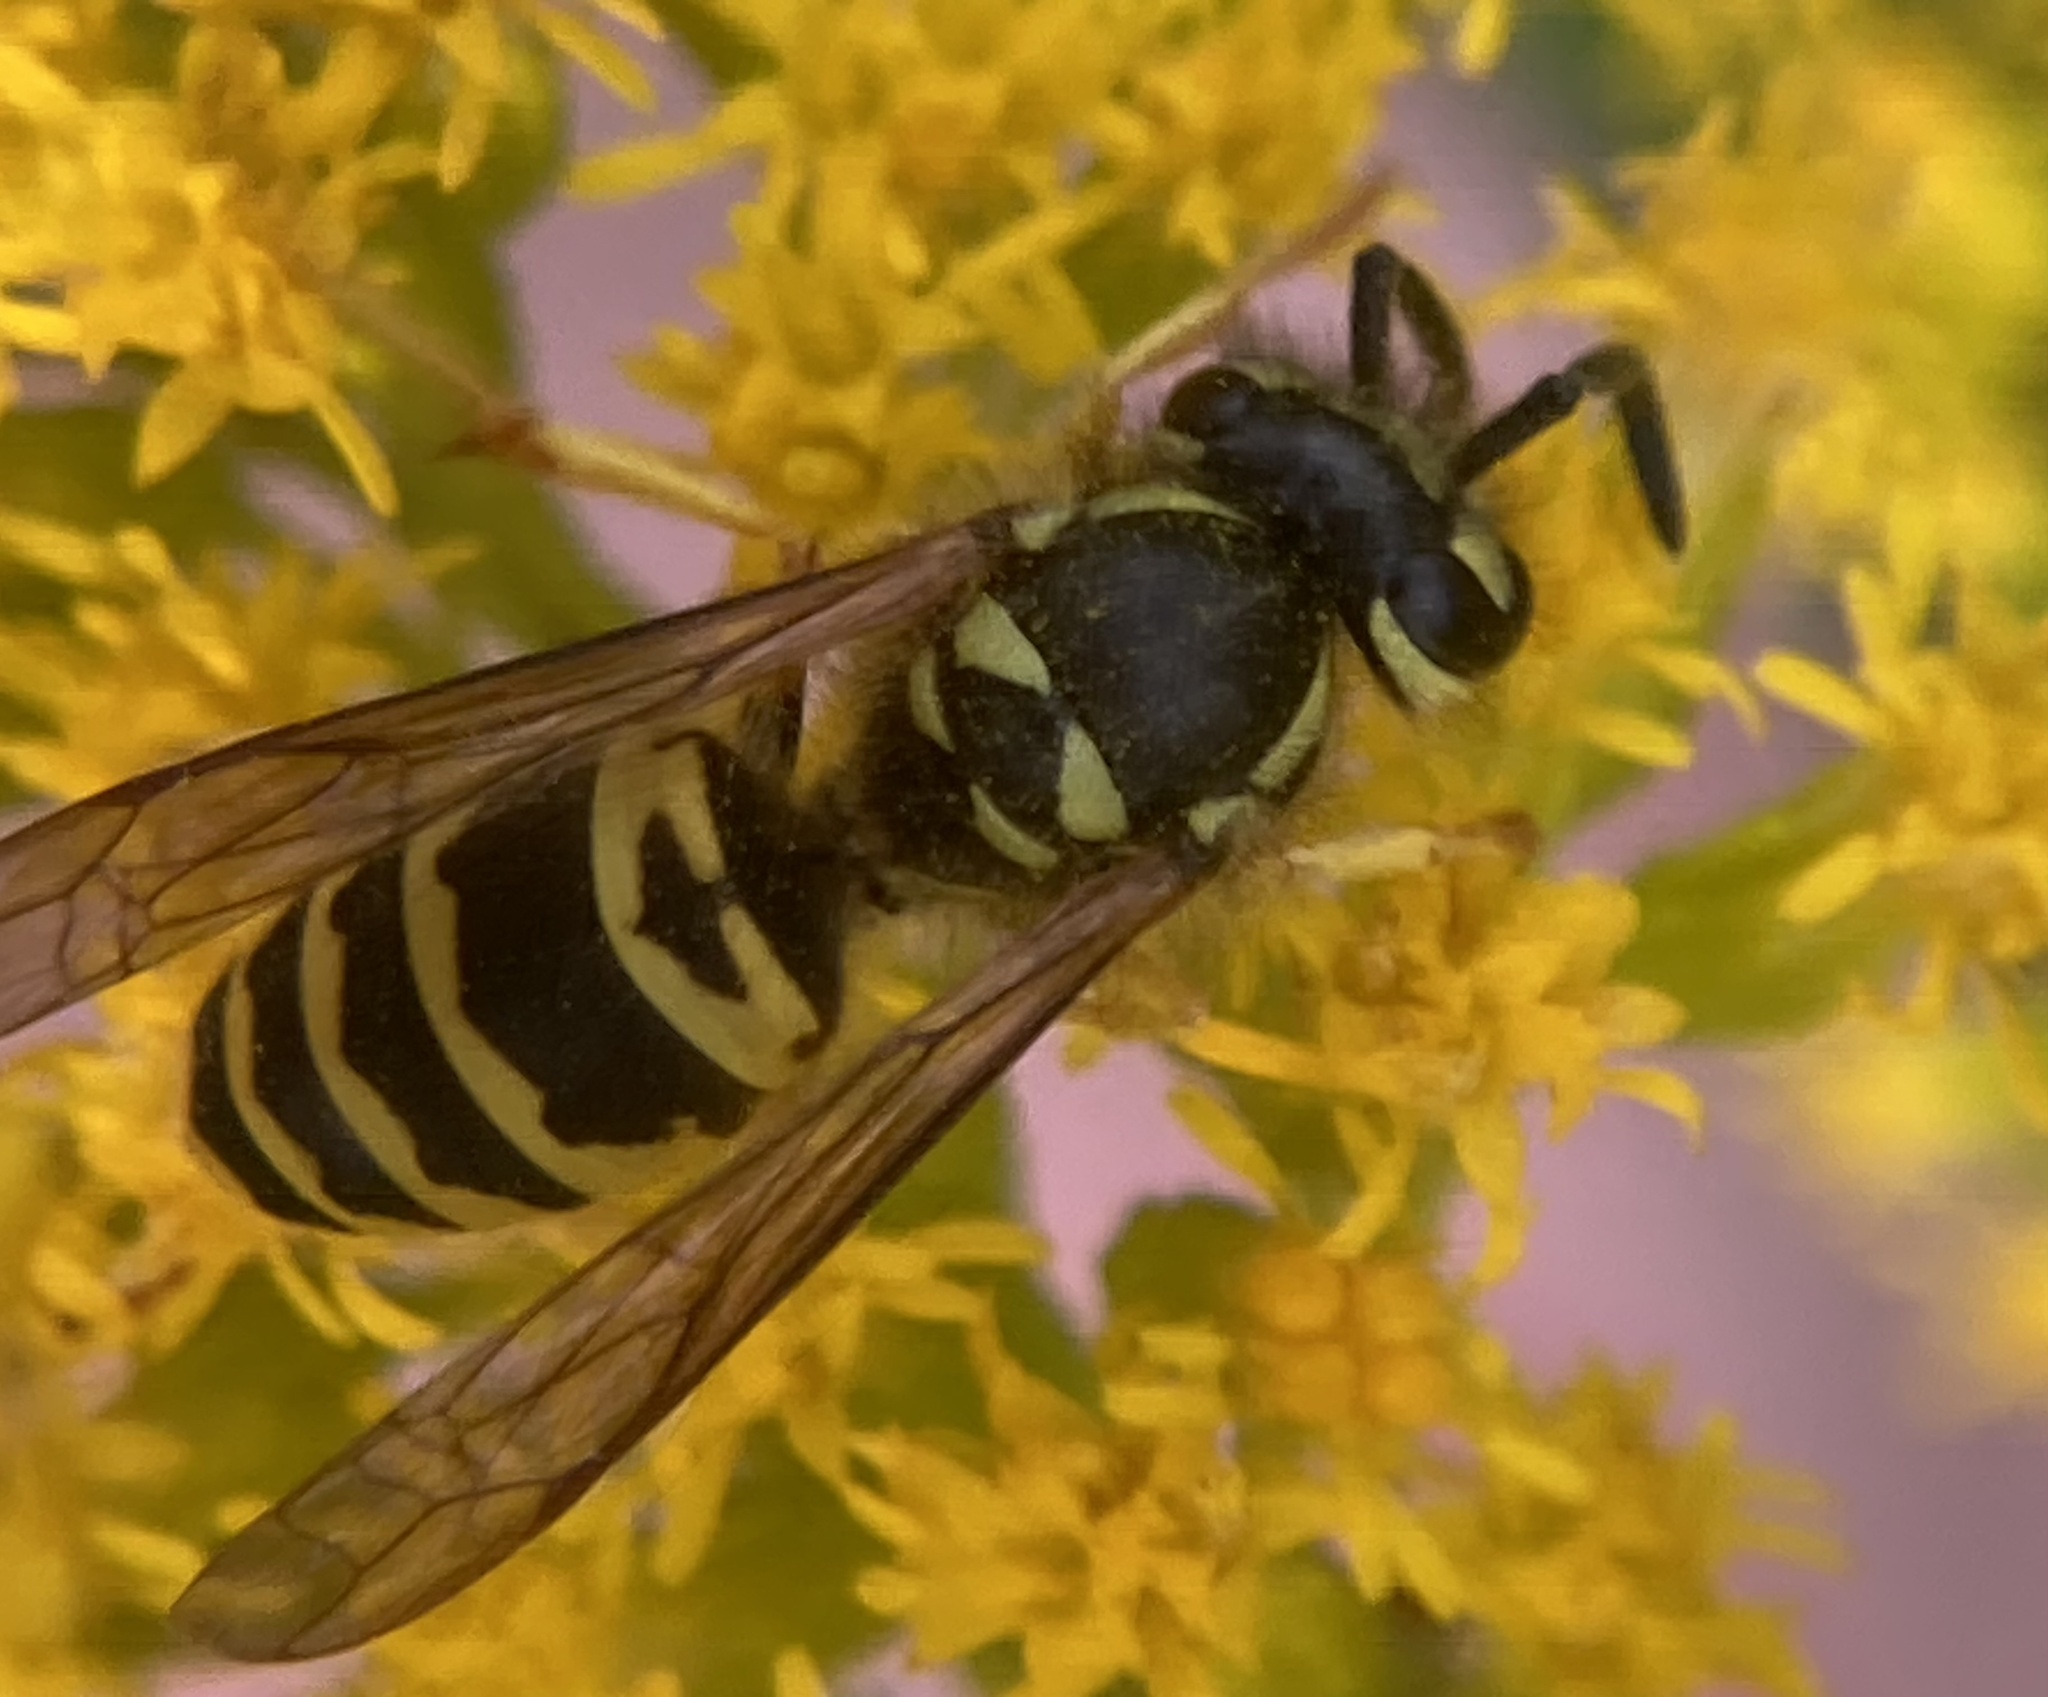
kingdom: Animalia
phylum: Arthropoda
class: Insecta
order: Hymenoptera
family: Vespidae
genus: Vespula
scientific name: Vespula maculifrons
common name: Eastern yellowjacket
